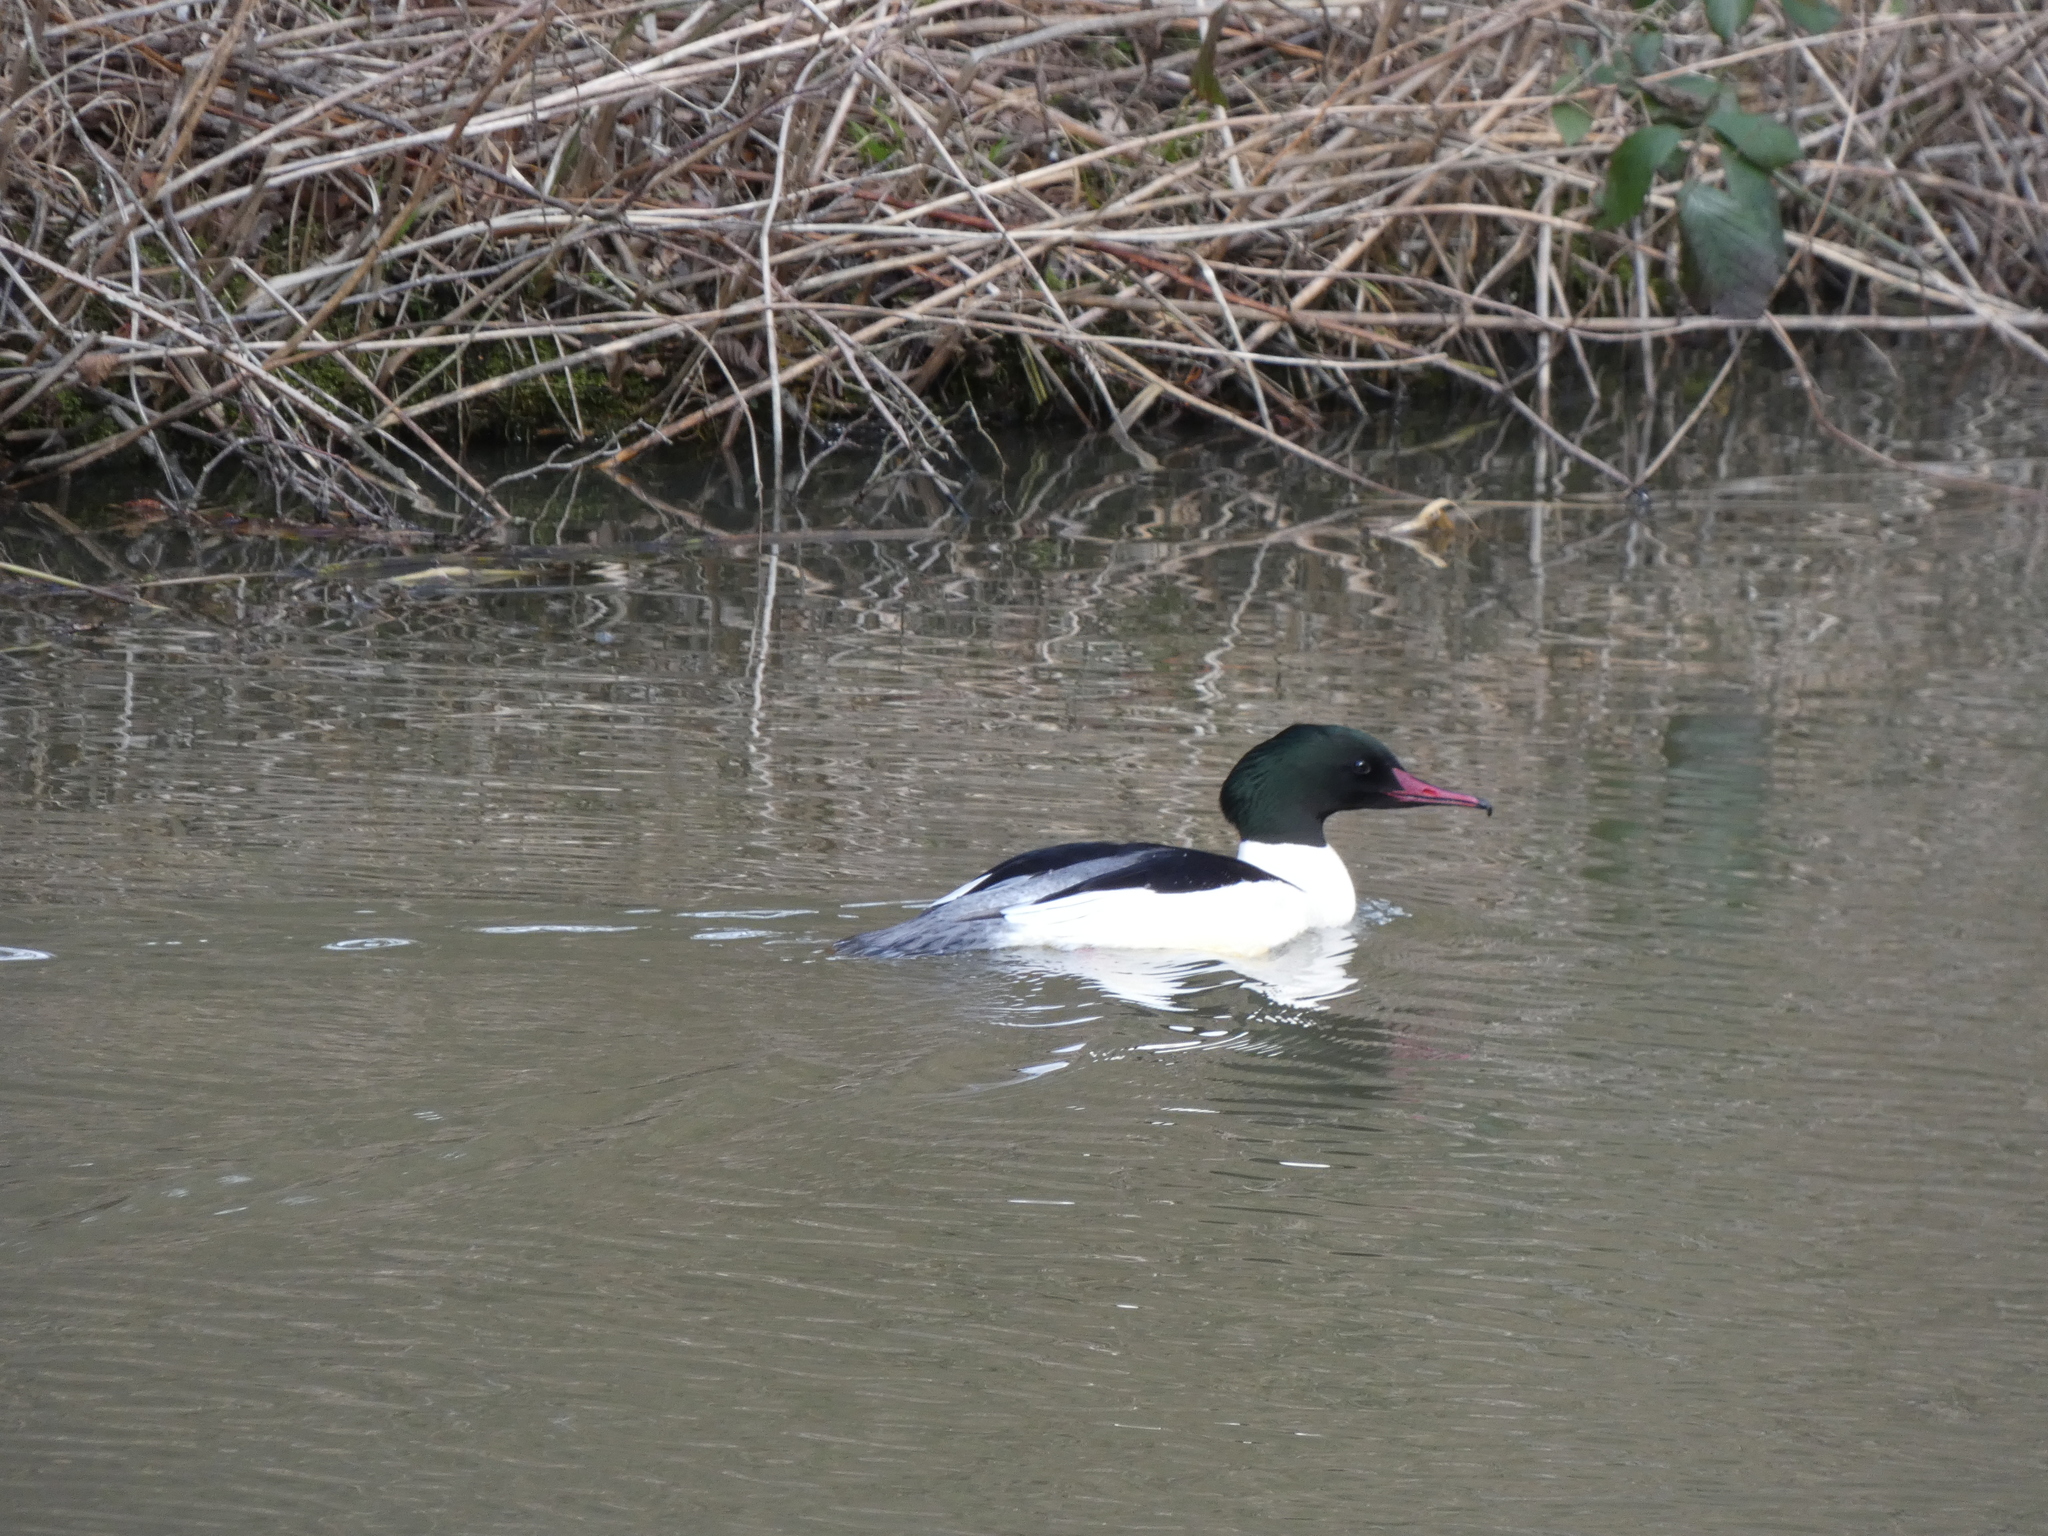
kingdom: Animalia
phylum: Chordata
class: Aves
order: Anseriformes
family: Anatidae
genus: Mergus
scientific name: Mergus merganser
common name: Common merganser
